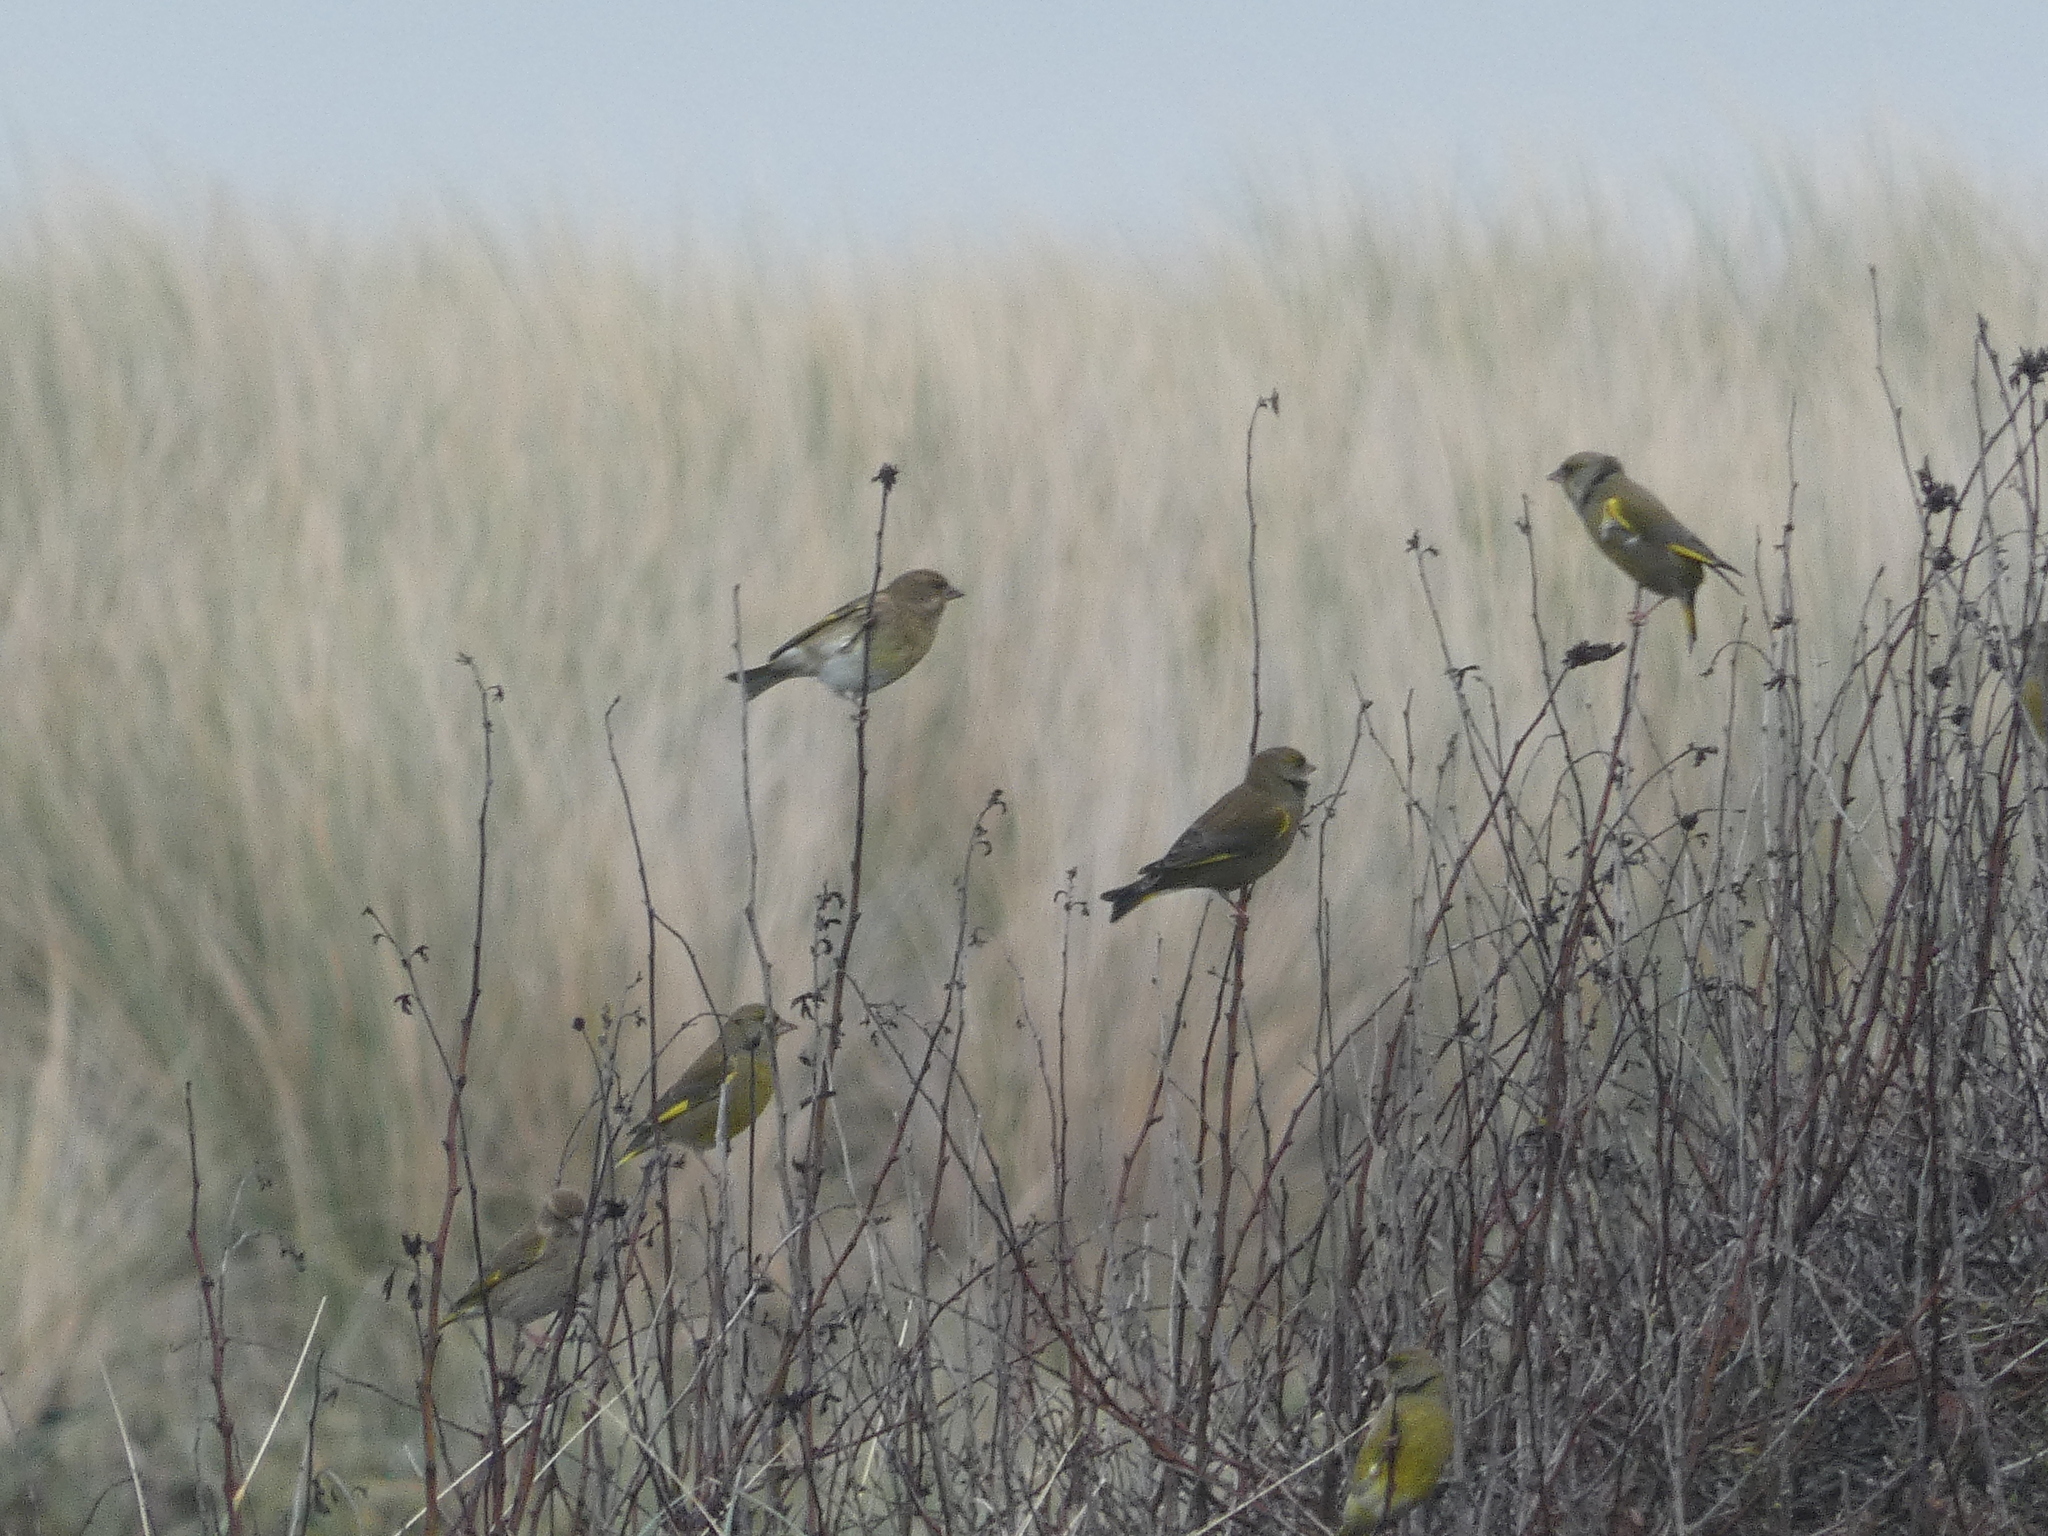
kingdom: Plantae
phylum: Tracheophyta
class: Liliopsida
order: Poales
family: Poaceae
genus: Chloris
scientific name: Chloris chloris
